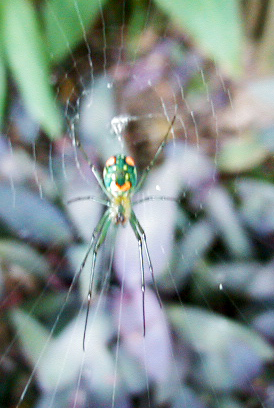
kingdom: Animalia
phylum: Arthropoda
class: Arachnida
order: Araneae
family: Tetragnathidae
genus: Leucauge
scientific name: Leucauge argyrobapta
